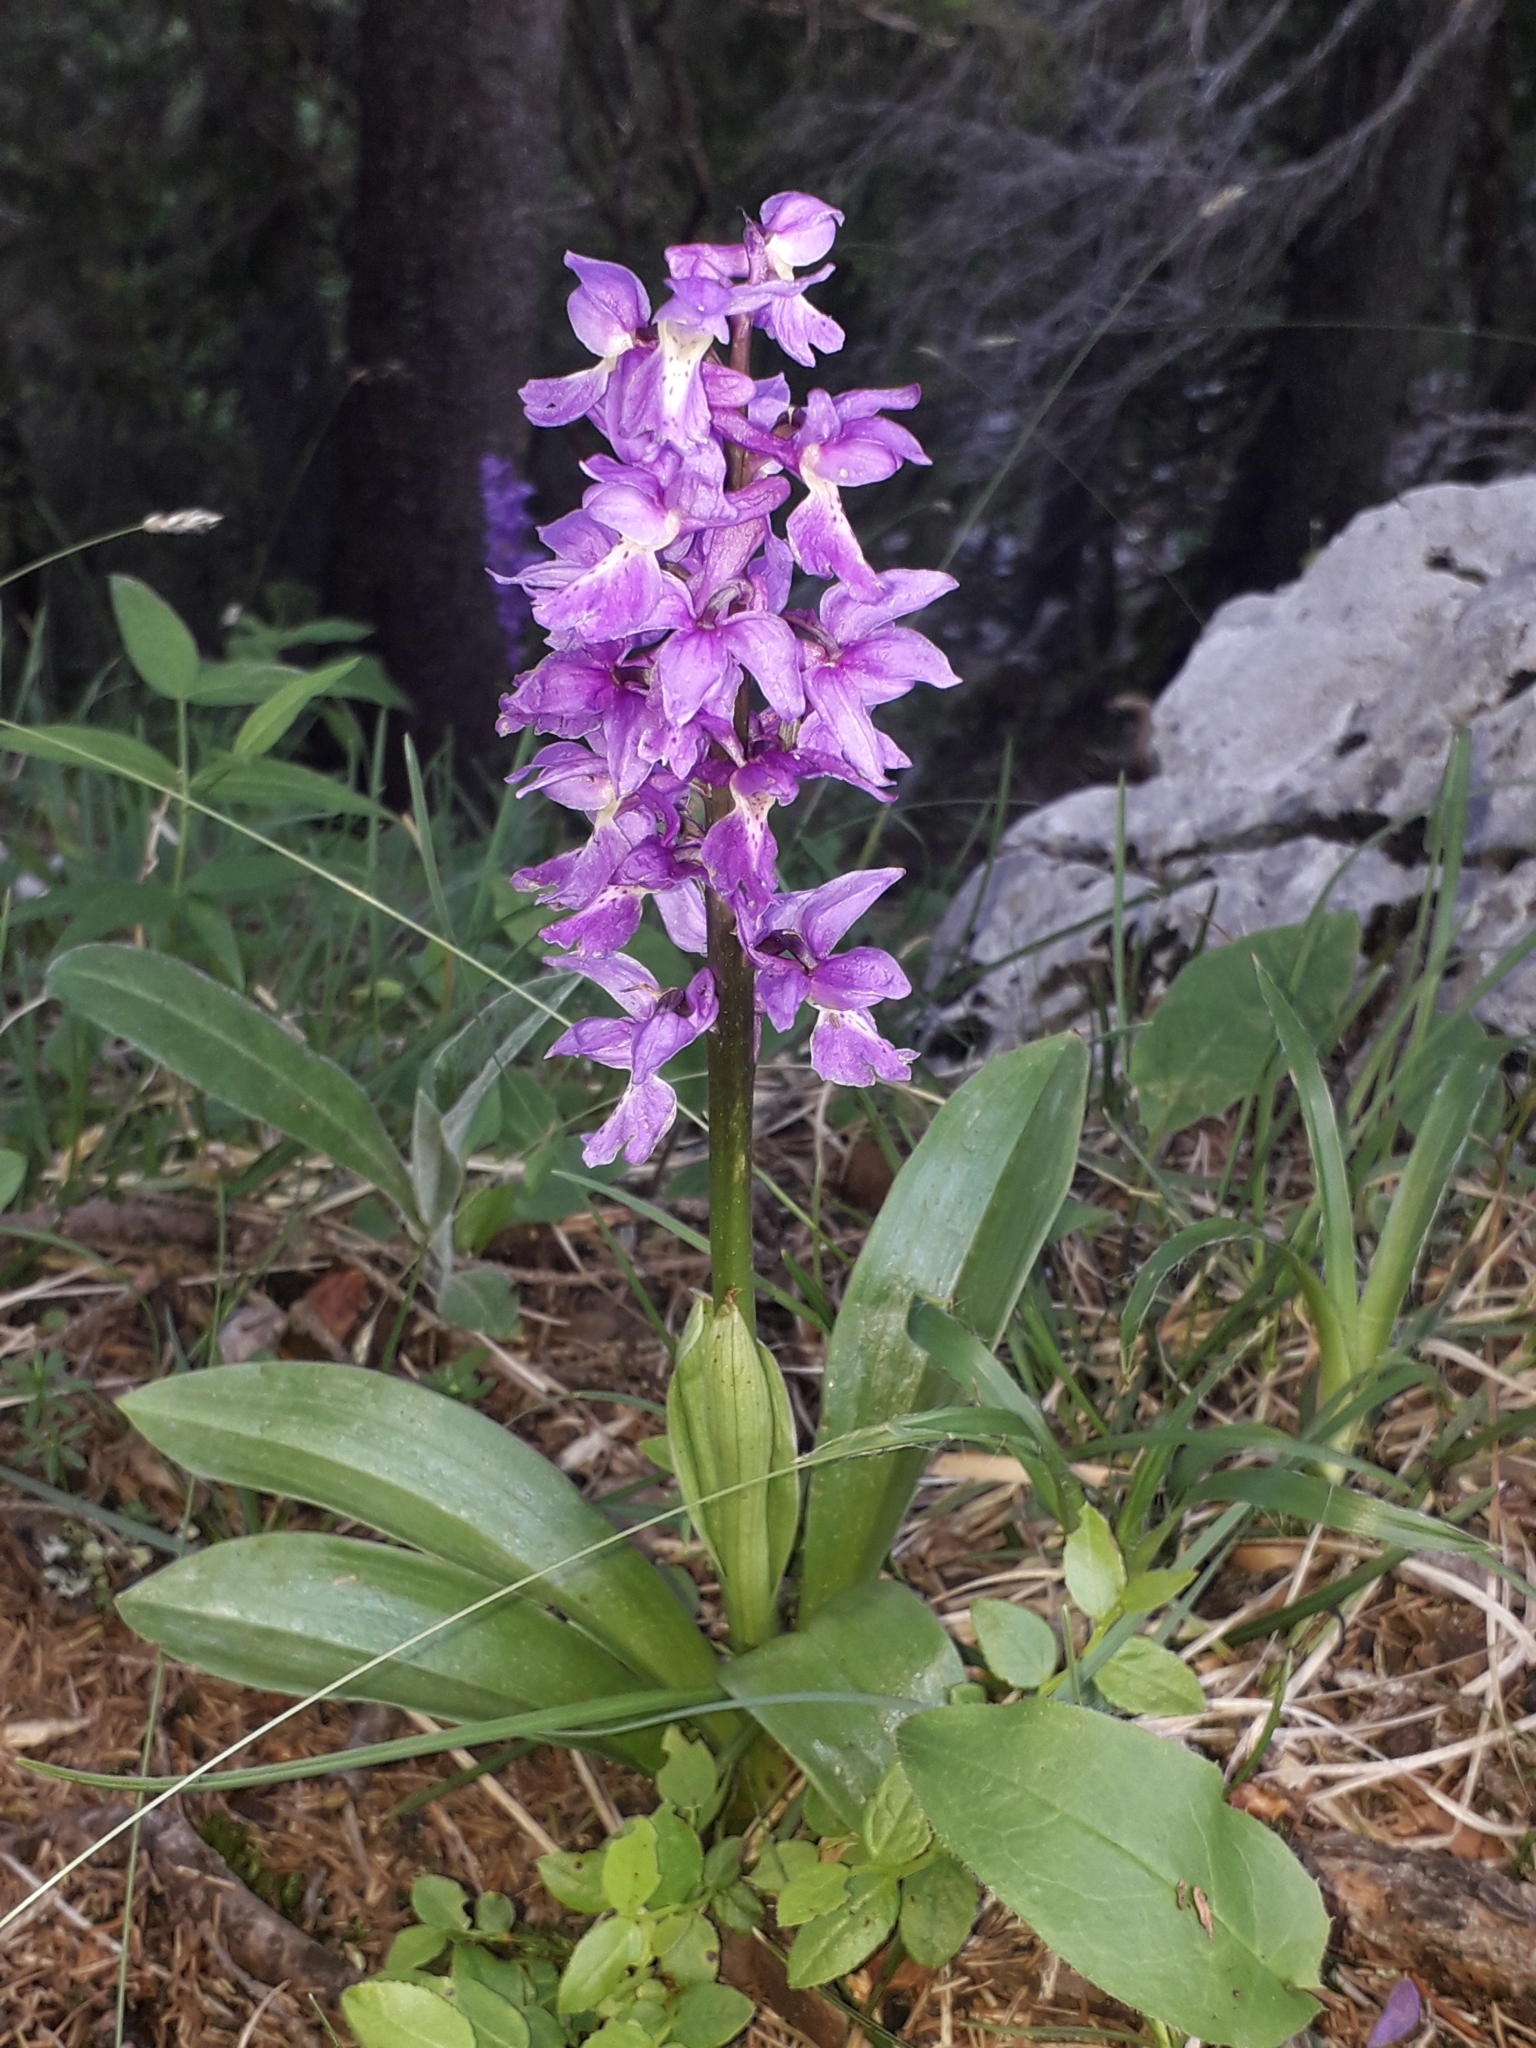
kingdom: Plantae
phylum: Tracheophyta
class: Liliopsida
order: Asparagales
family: Orchidaceae
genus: Orchis
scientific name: Orchis mascula
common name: Early-purple orchid
